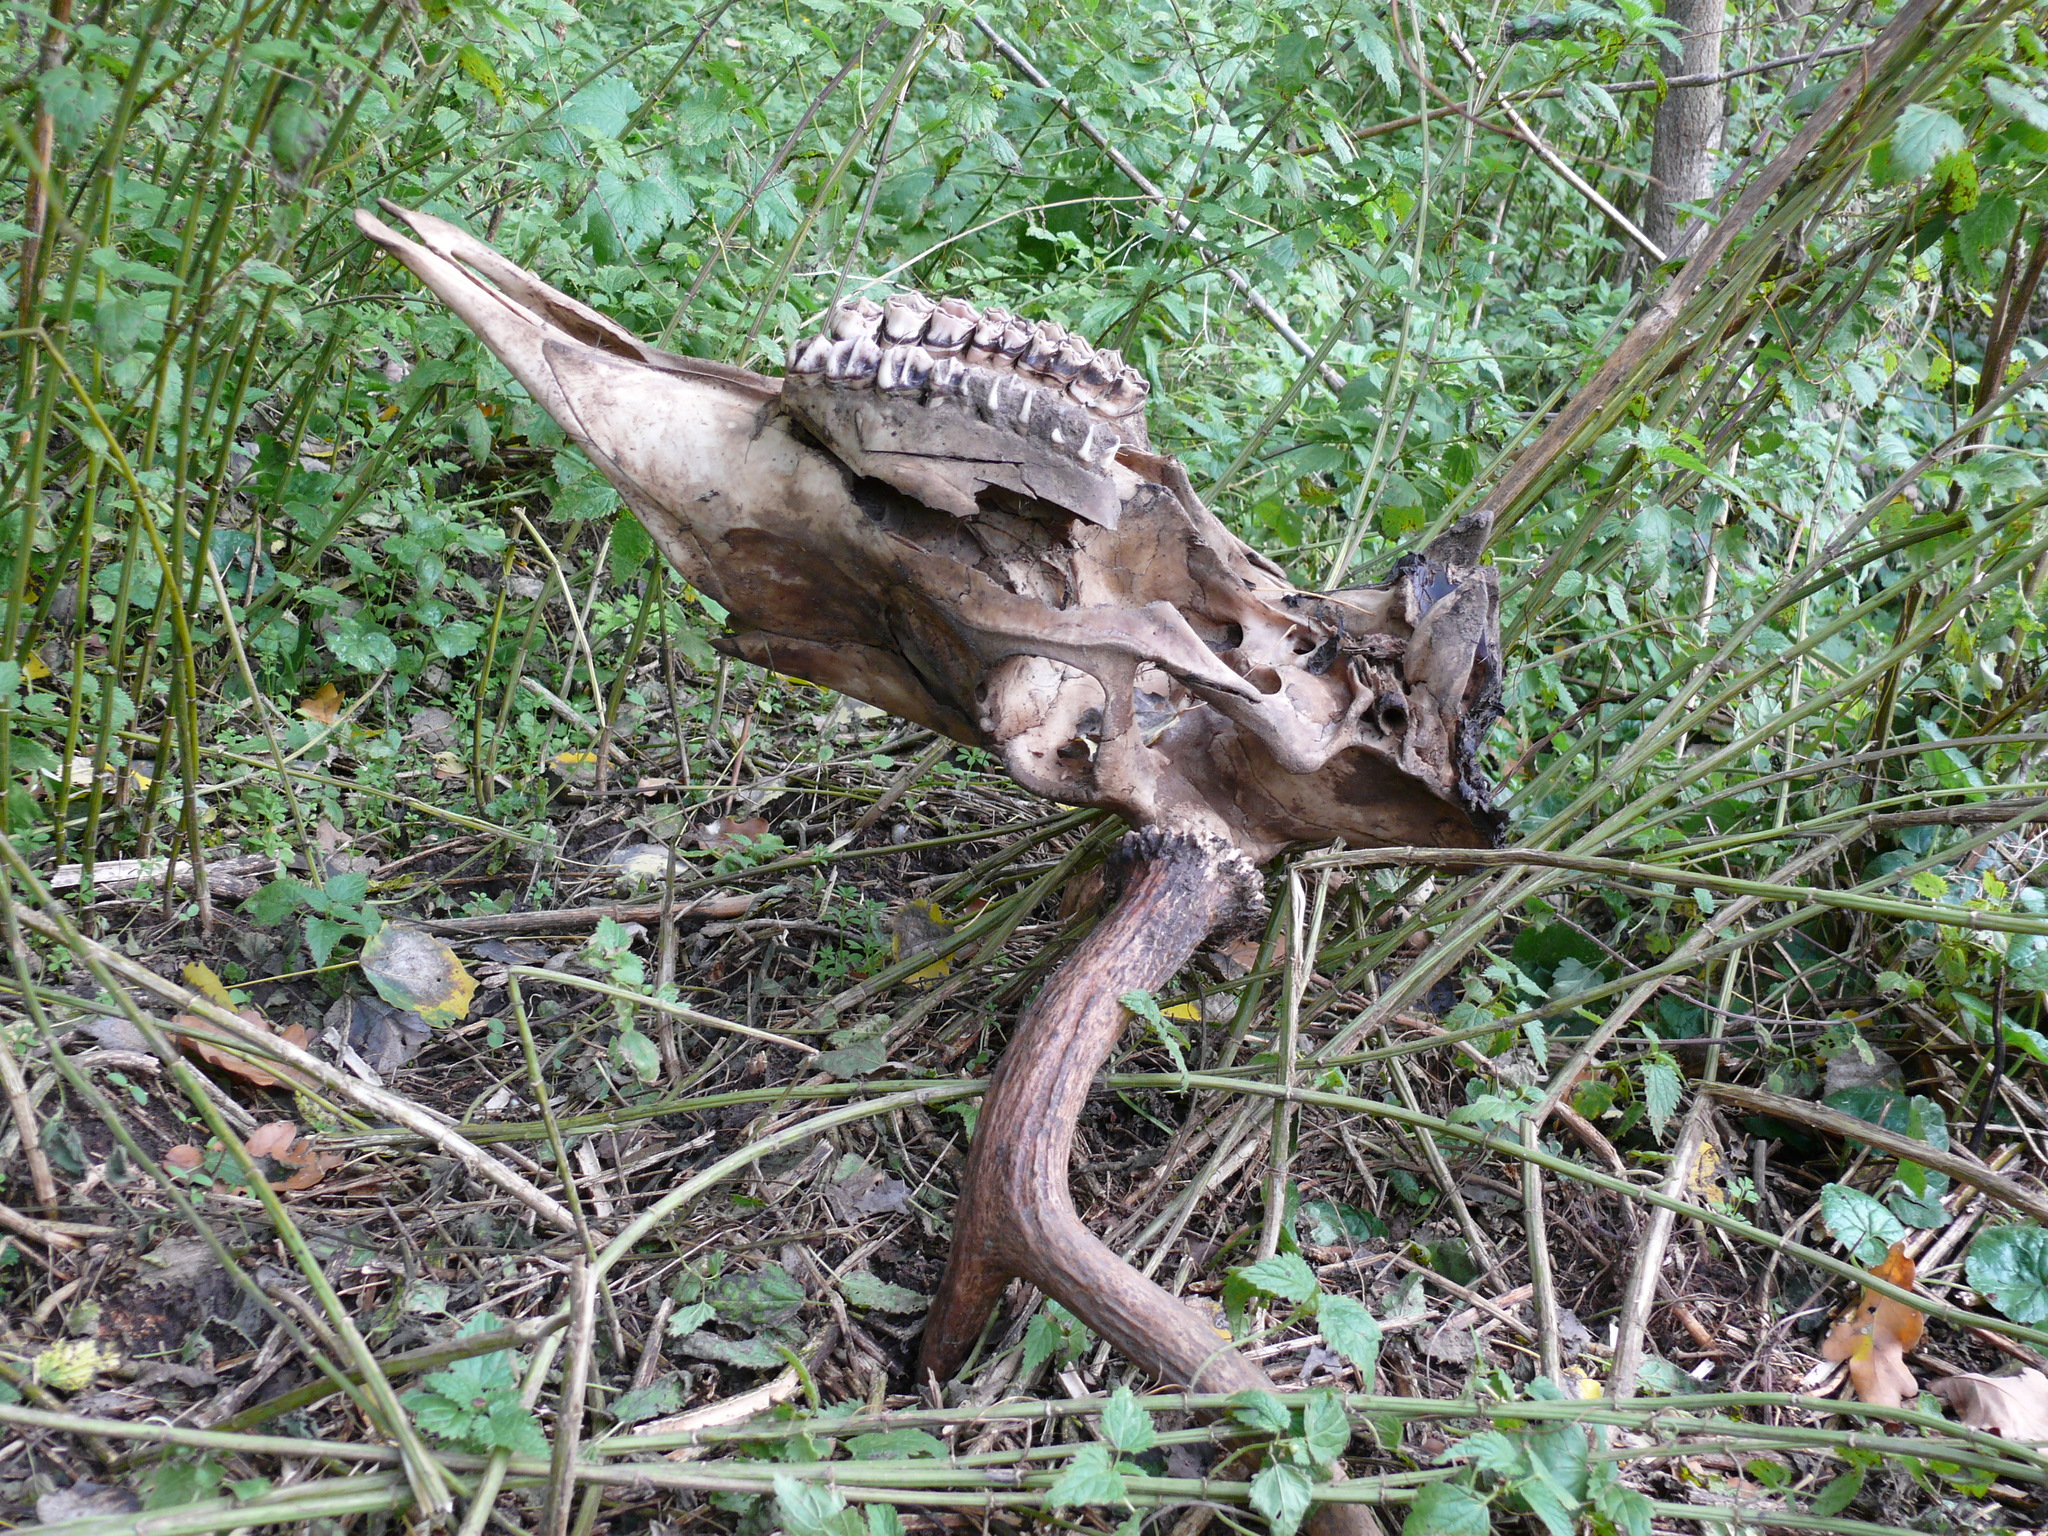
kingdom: Animalia
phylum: Chordata
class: Mammalia
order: Artiodactyla
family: Cervidae
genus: Alces
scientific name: Alces alces
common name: Moose
